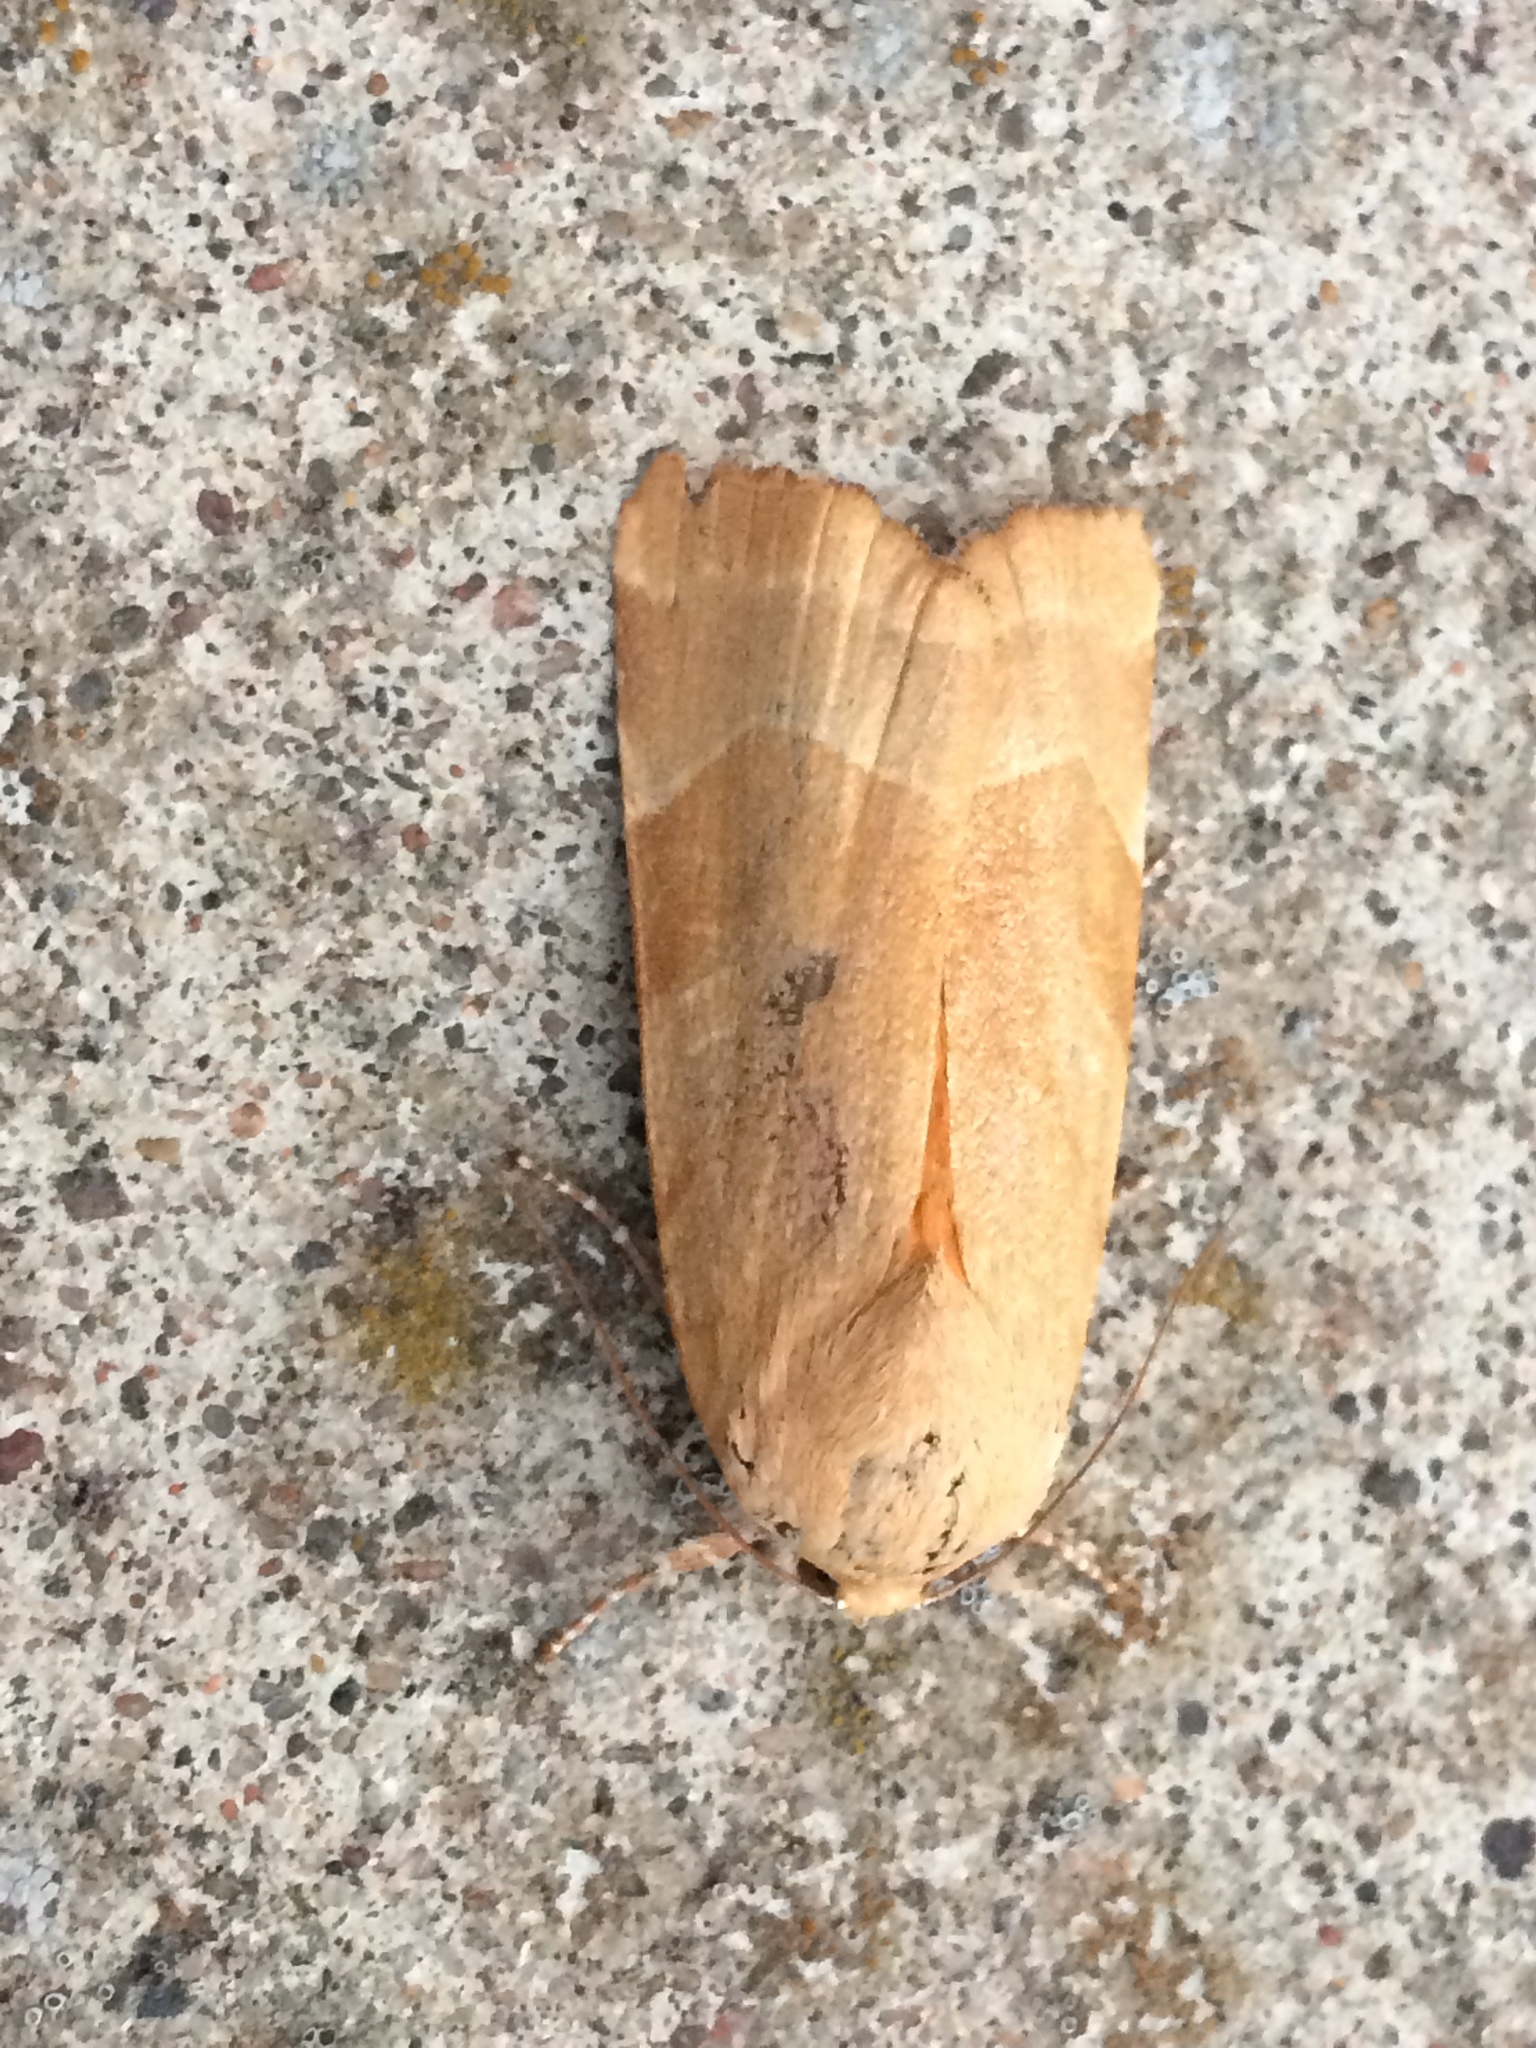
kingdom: Animalia
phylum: Arthropoda
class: Insecta
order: Lepidoptera
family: Noctuidae
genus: Noctua
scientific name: Noctua fimbriata
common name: Broad-bordered yellow underwing
